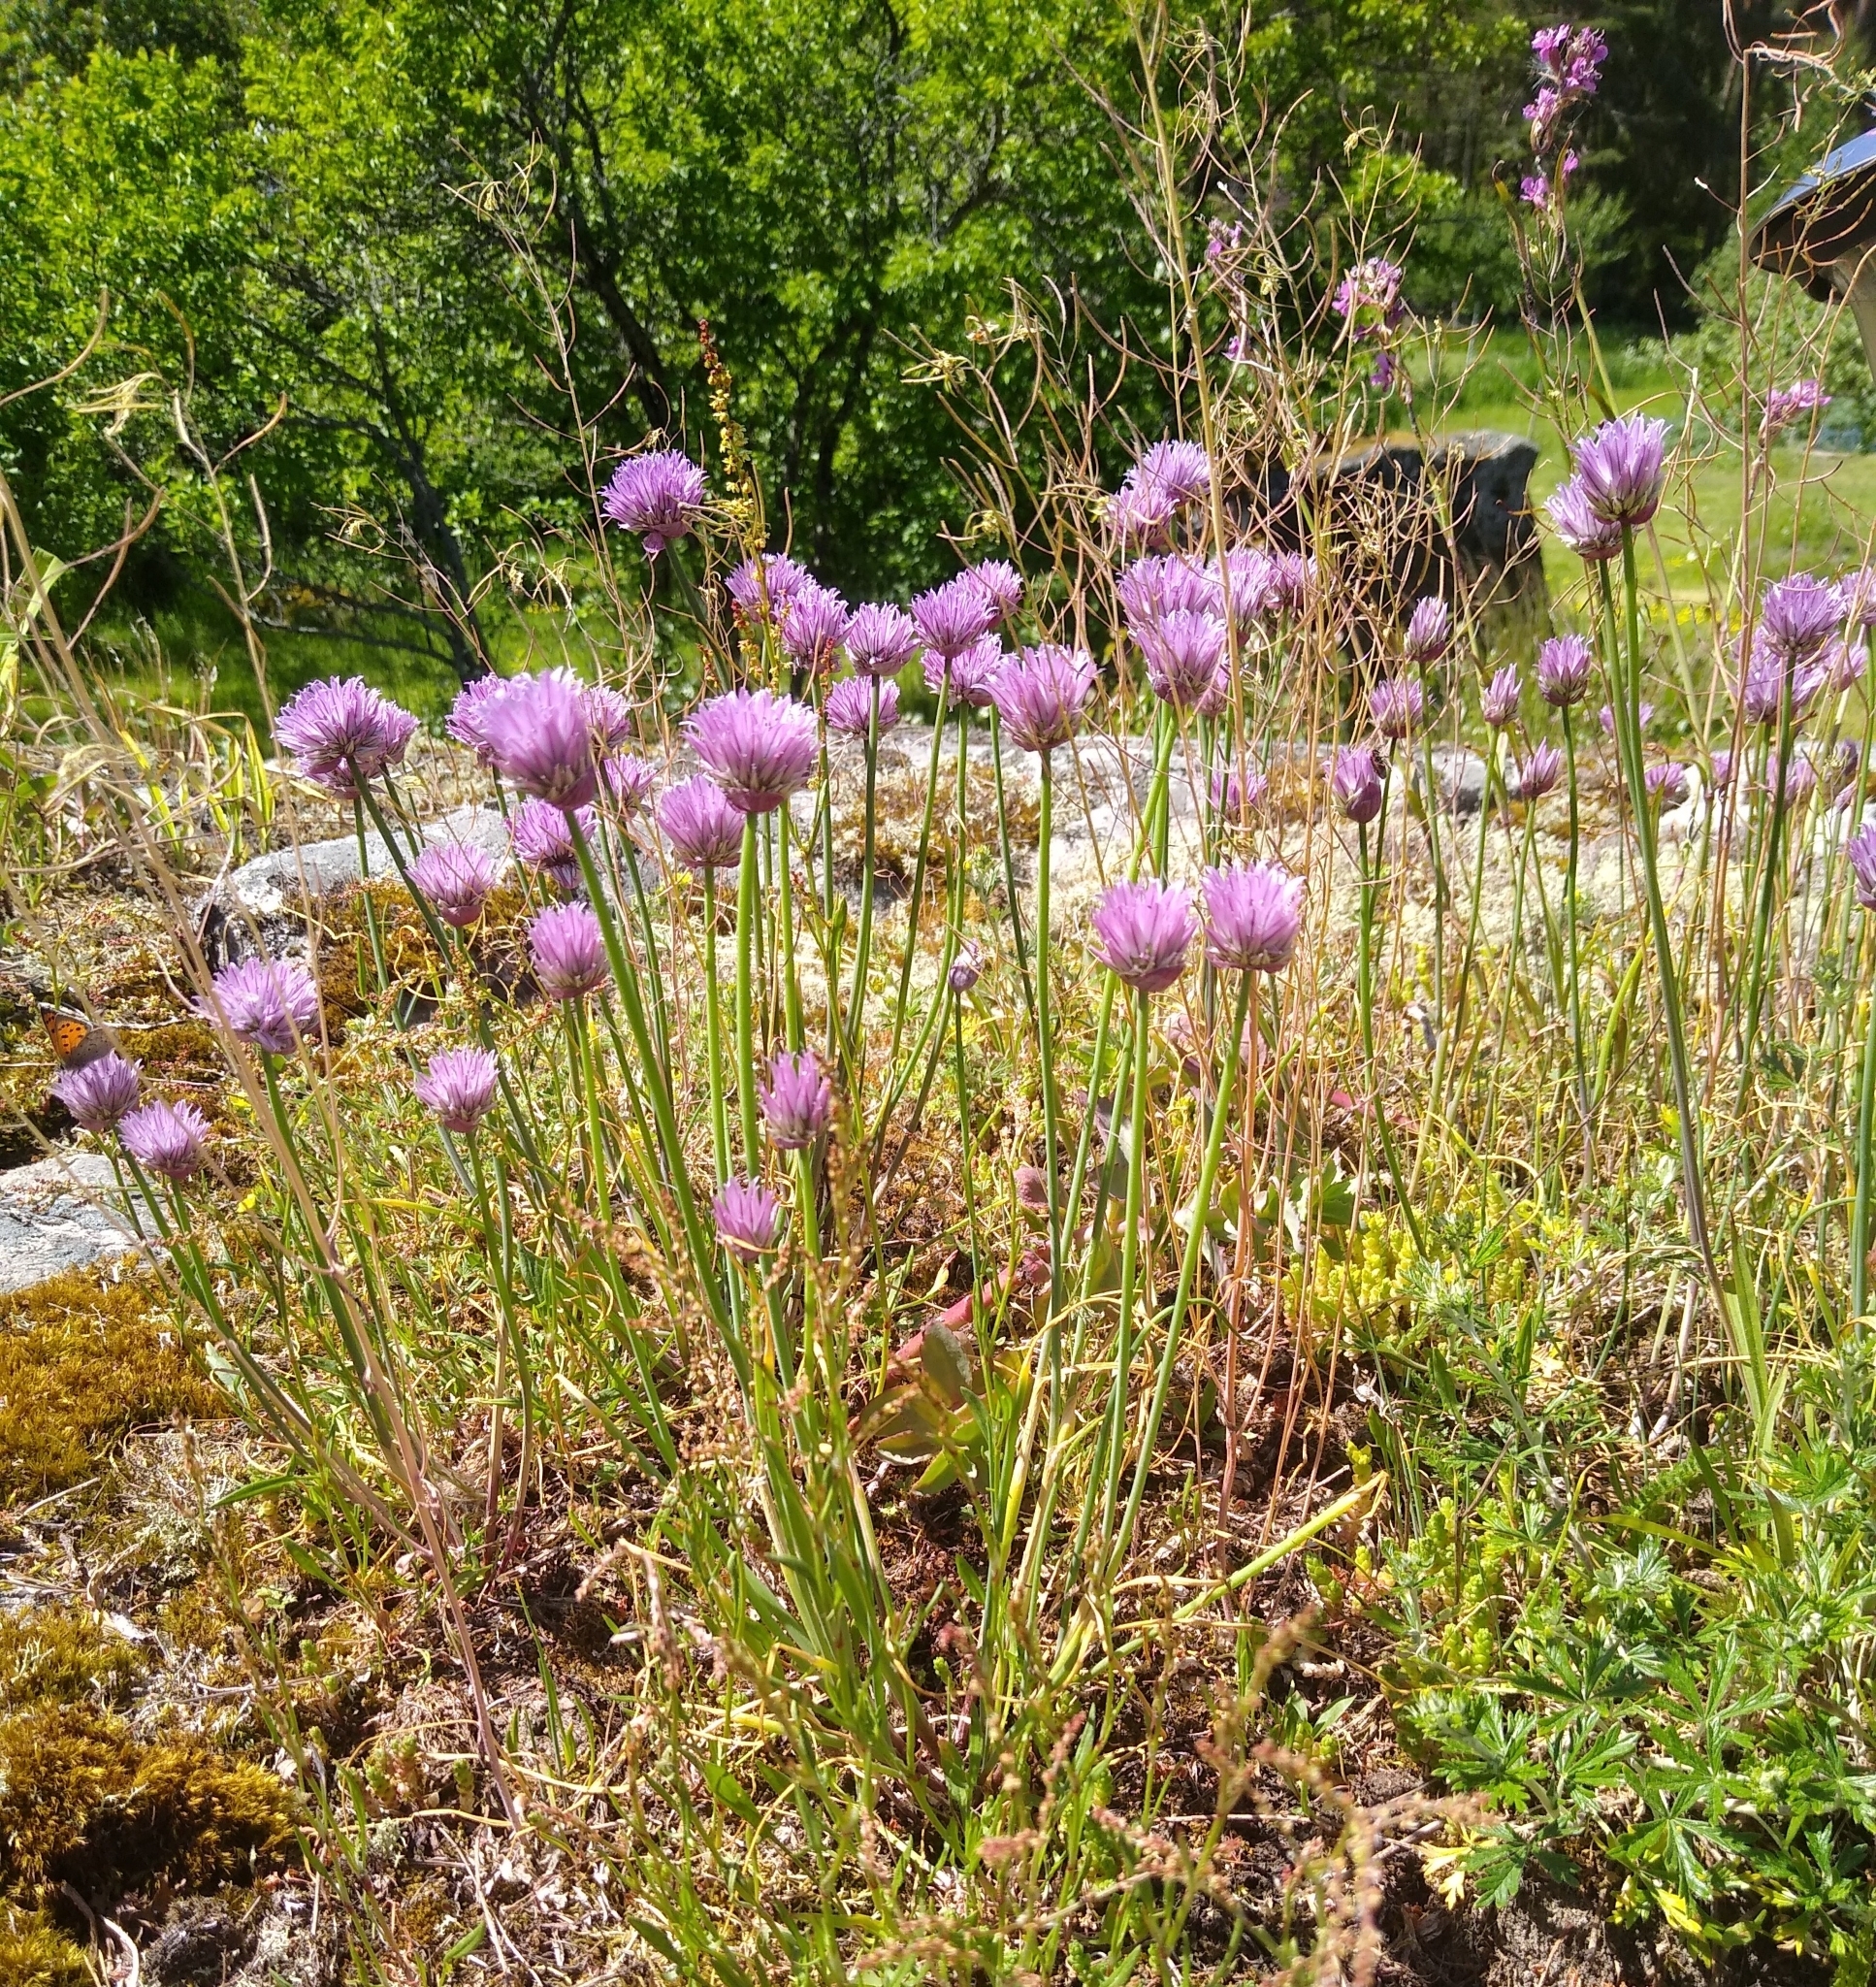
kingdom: Plantae
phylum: Tracheophyta
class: Liliopsida
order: Asparagales
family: Amaryllidaceae
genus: Allium
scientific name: Allium schoenoprasum
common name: Chives
